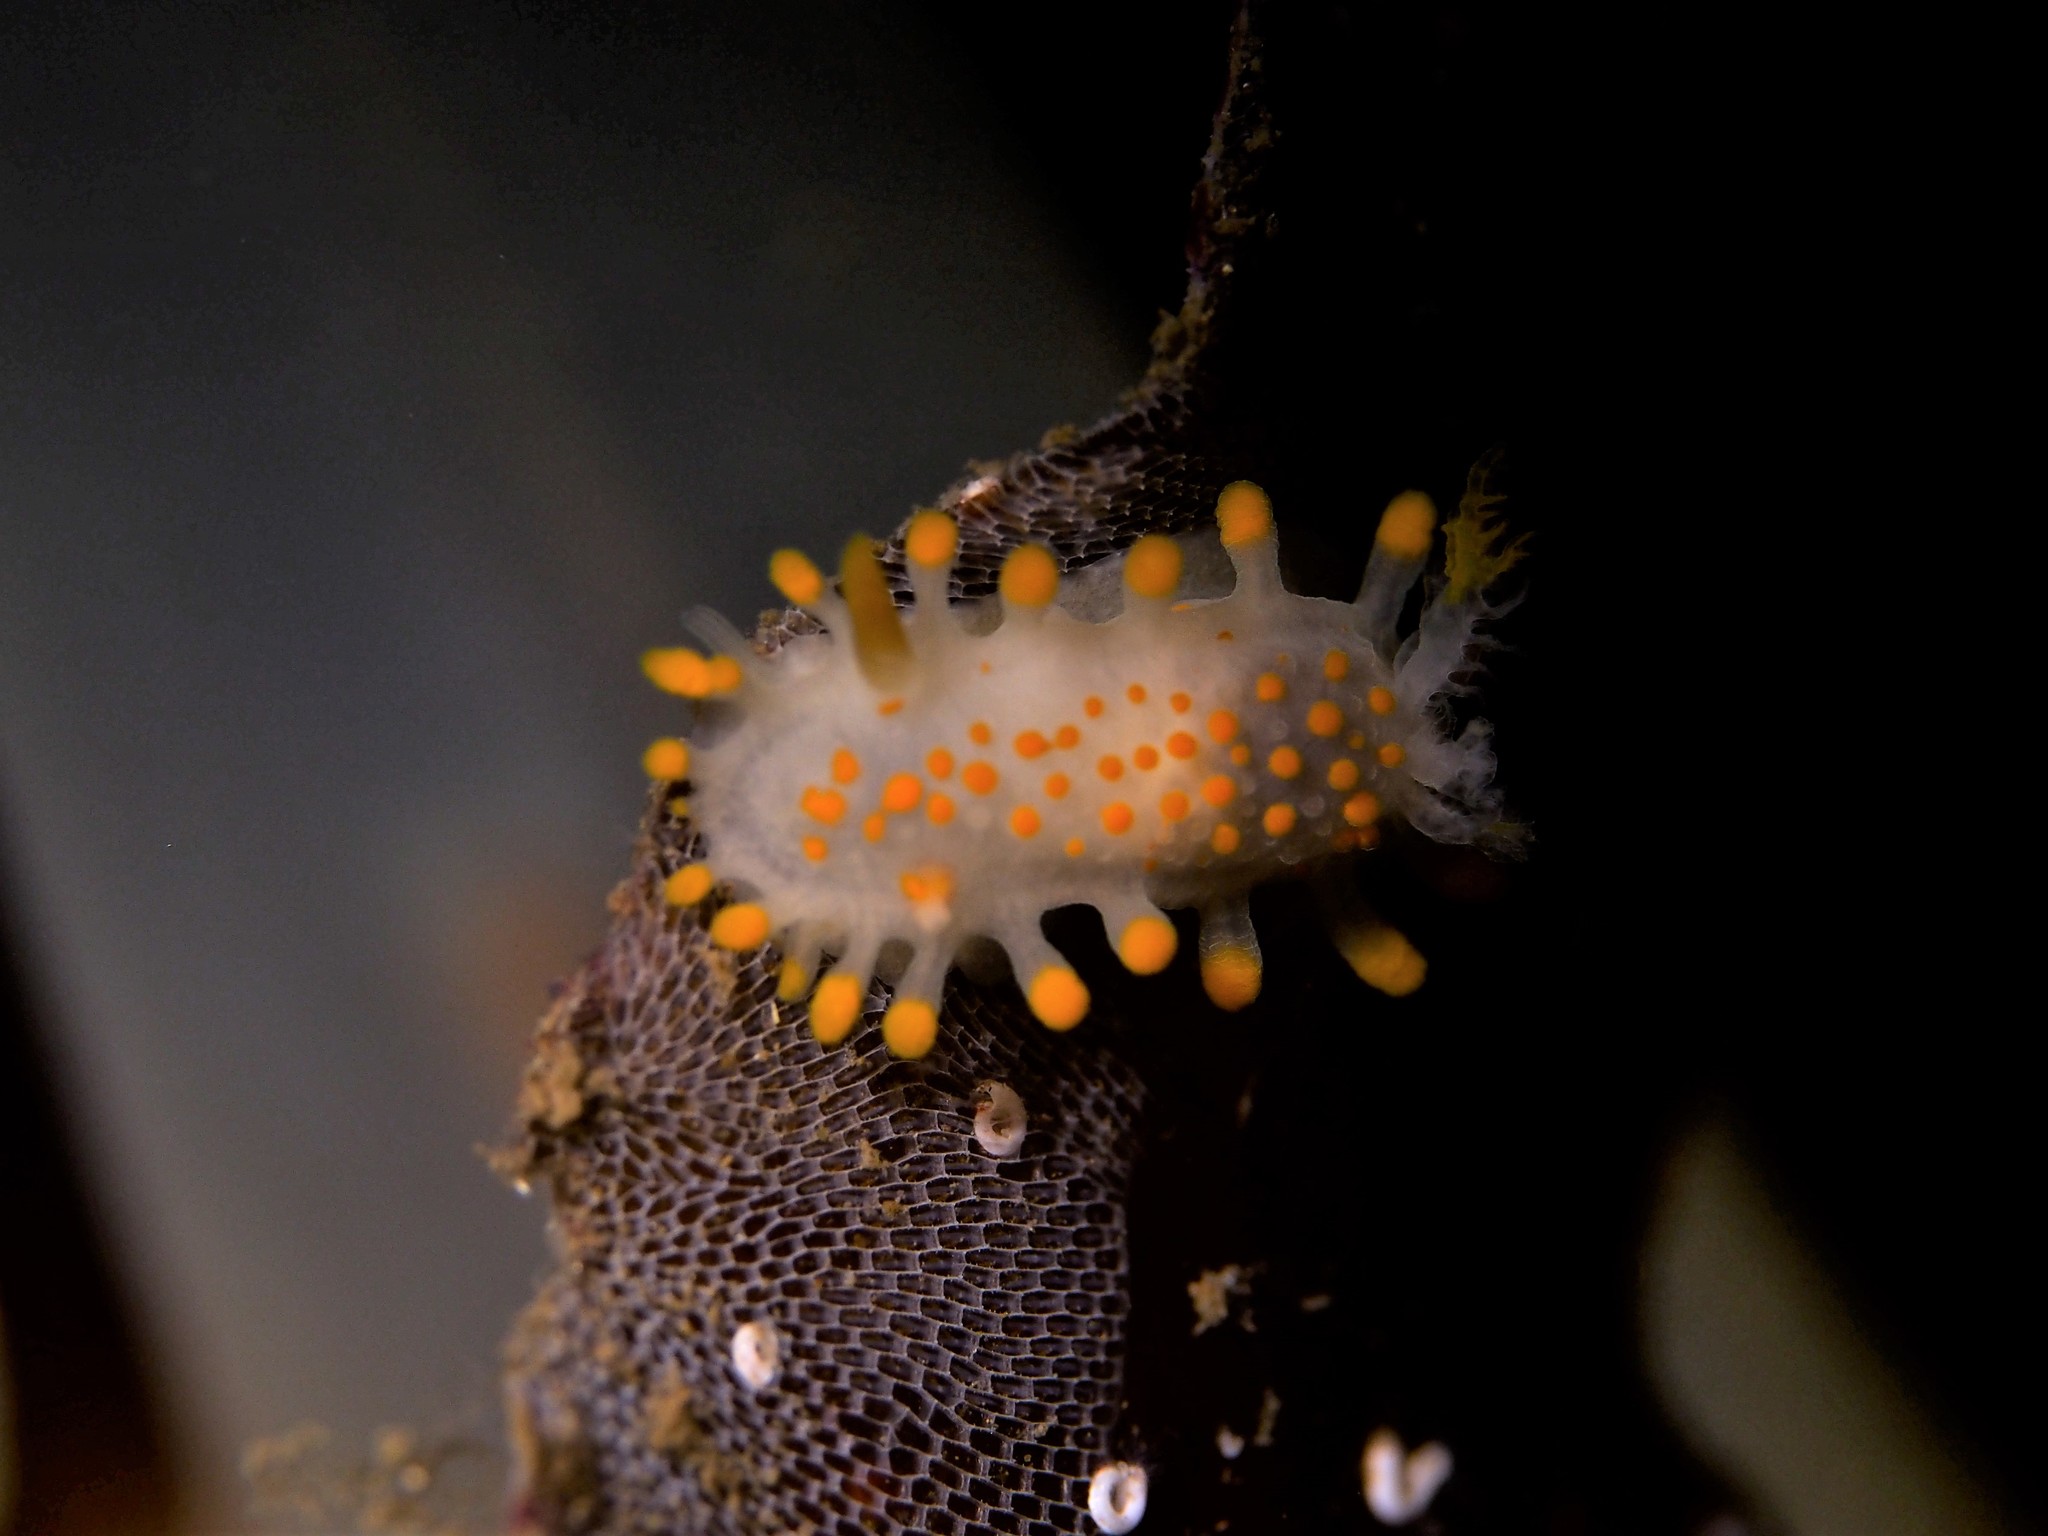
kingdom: Animalia
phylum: Mollusca
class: Gastropoda
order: Nudibranchia
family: Polyceridae
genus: Limacia
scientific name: Limacia clavigera
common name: Orange-clubbed sea slug
